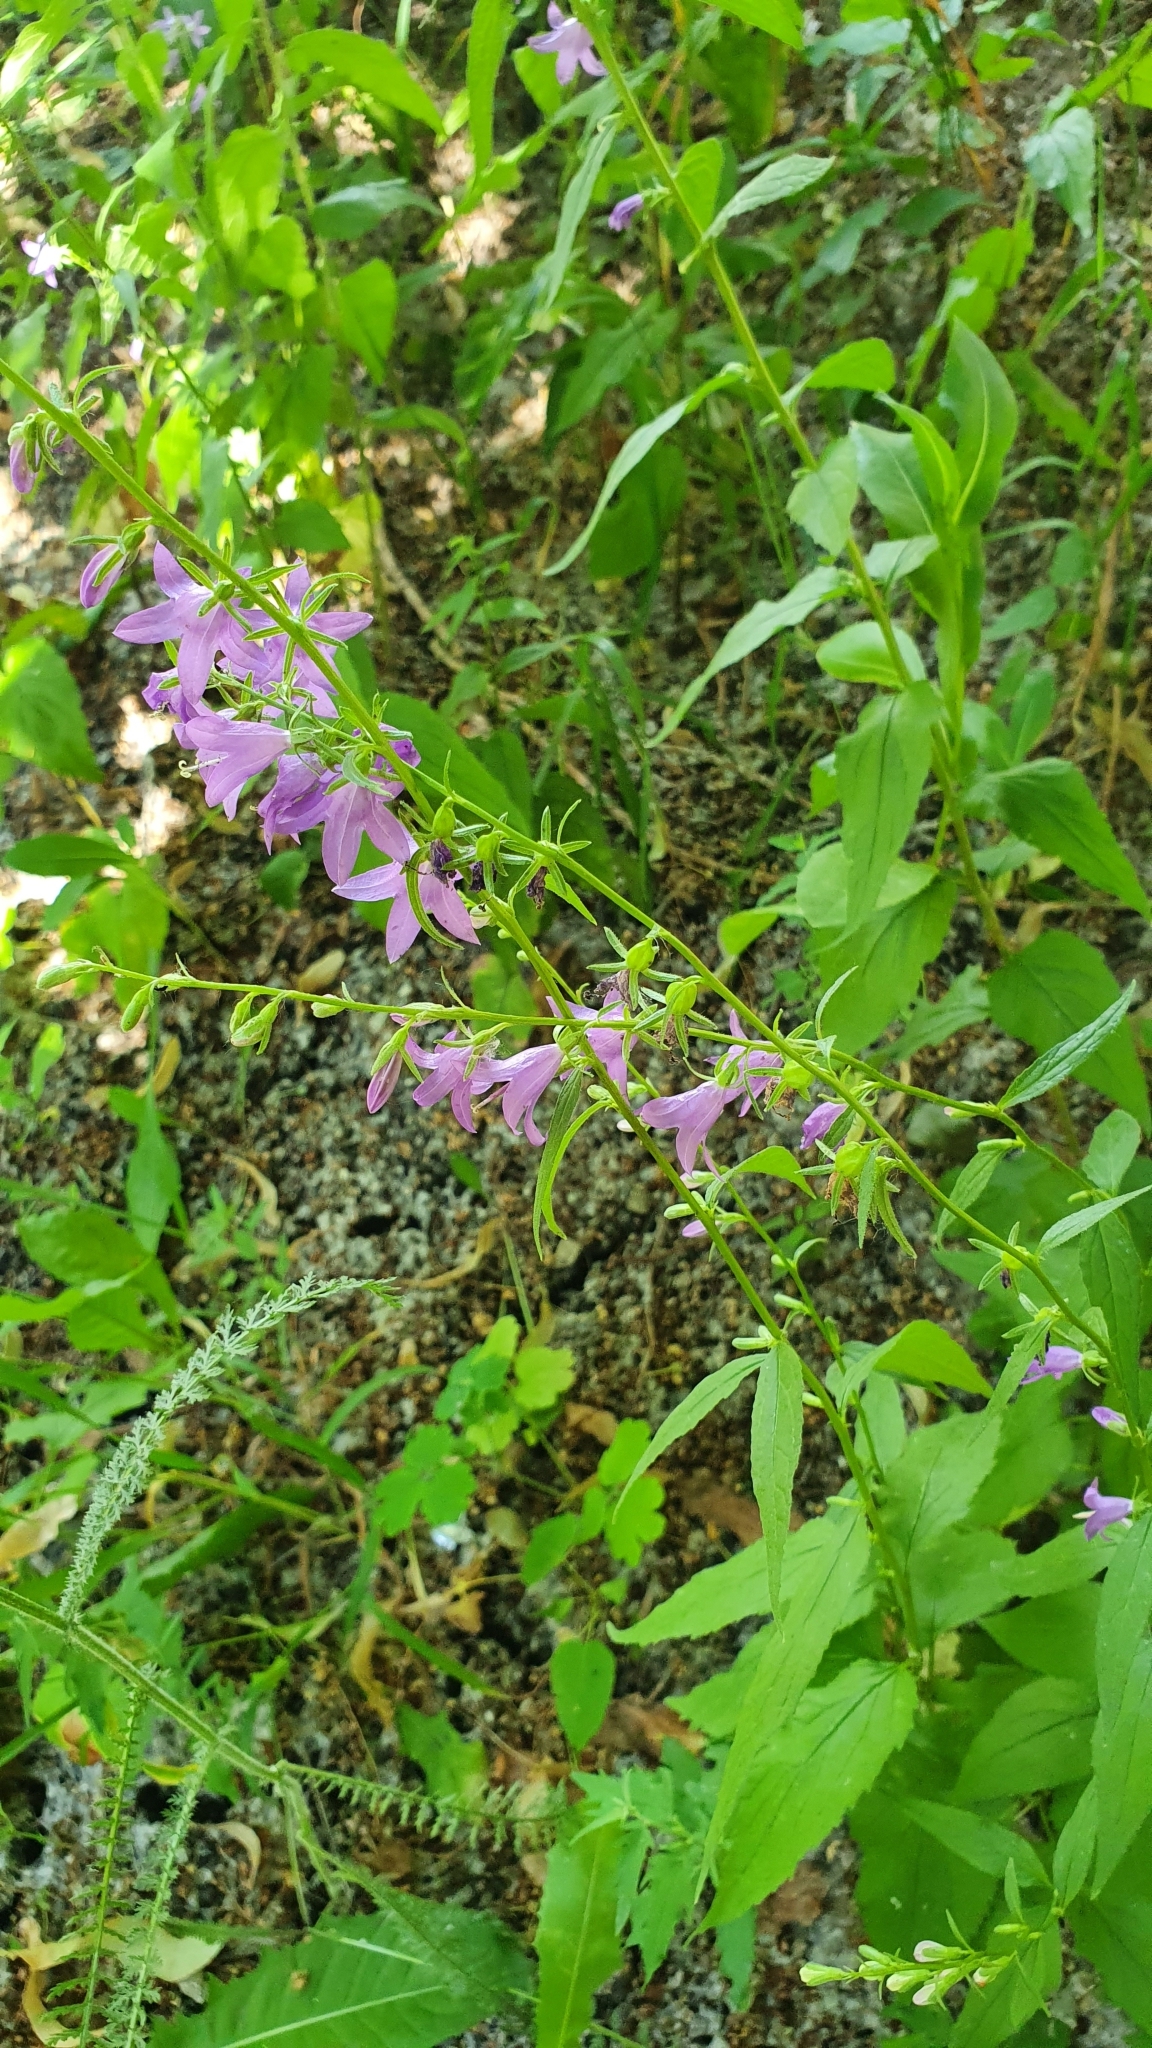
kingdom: Plantae
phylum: Tracheophyta
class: Magnoliopsida
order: Asterales
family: Campanulaceae
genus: Campanula
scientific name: Campanula rapunculoides
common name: Creeping bellflower
